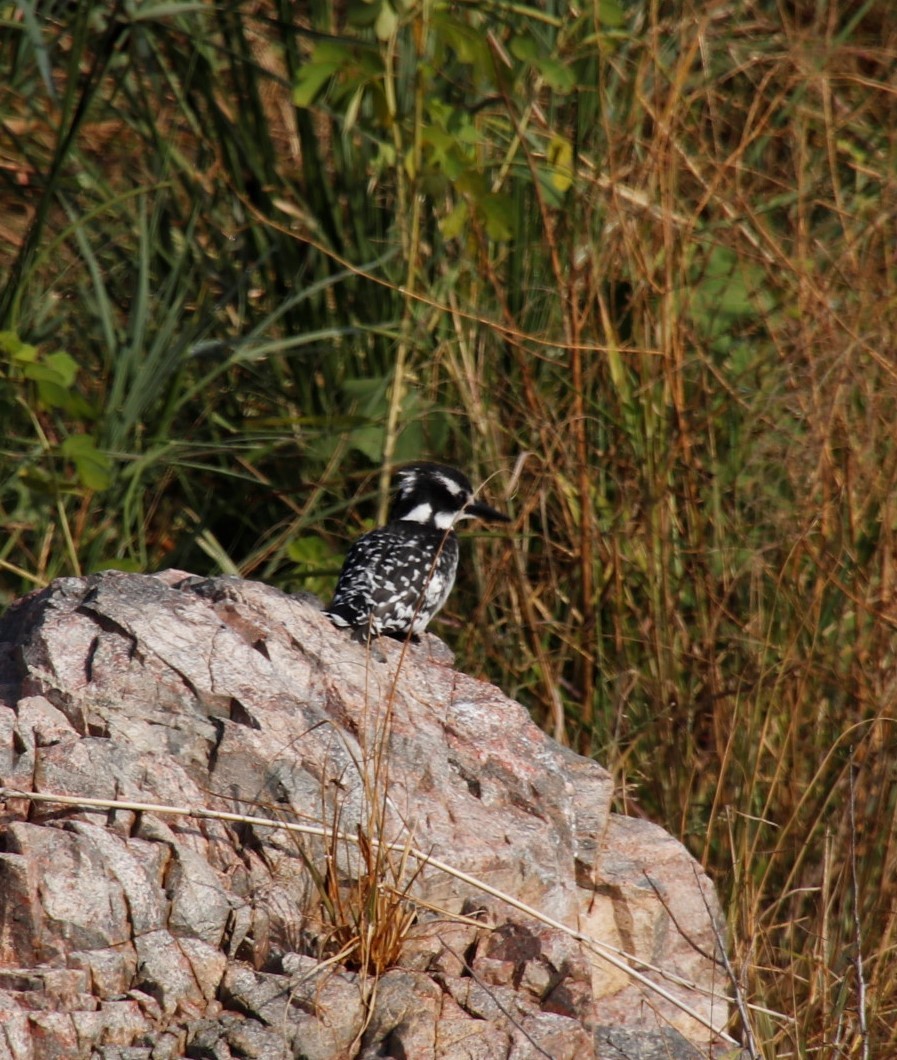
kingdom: Animalia
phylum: Chordata
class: Aves
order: Coraciiformes
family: Alcedinidae
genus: Ceryle
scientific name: Ceryle rudis
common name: Pied kingfisher
